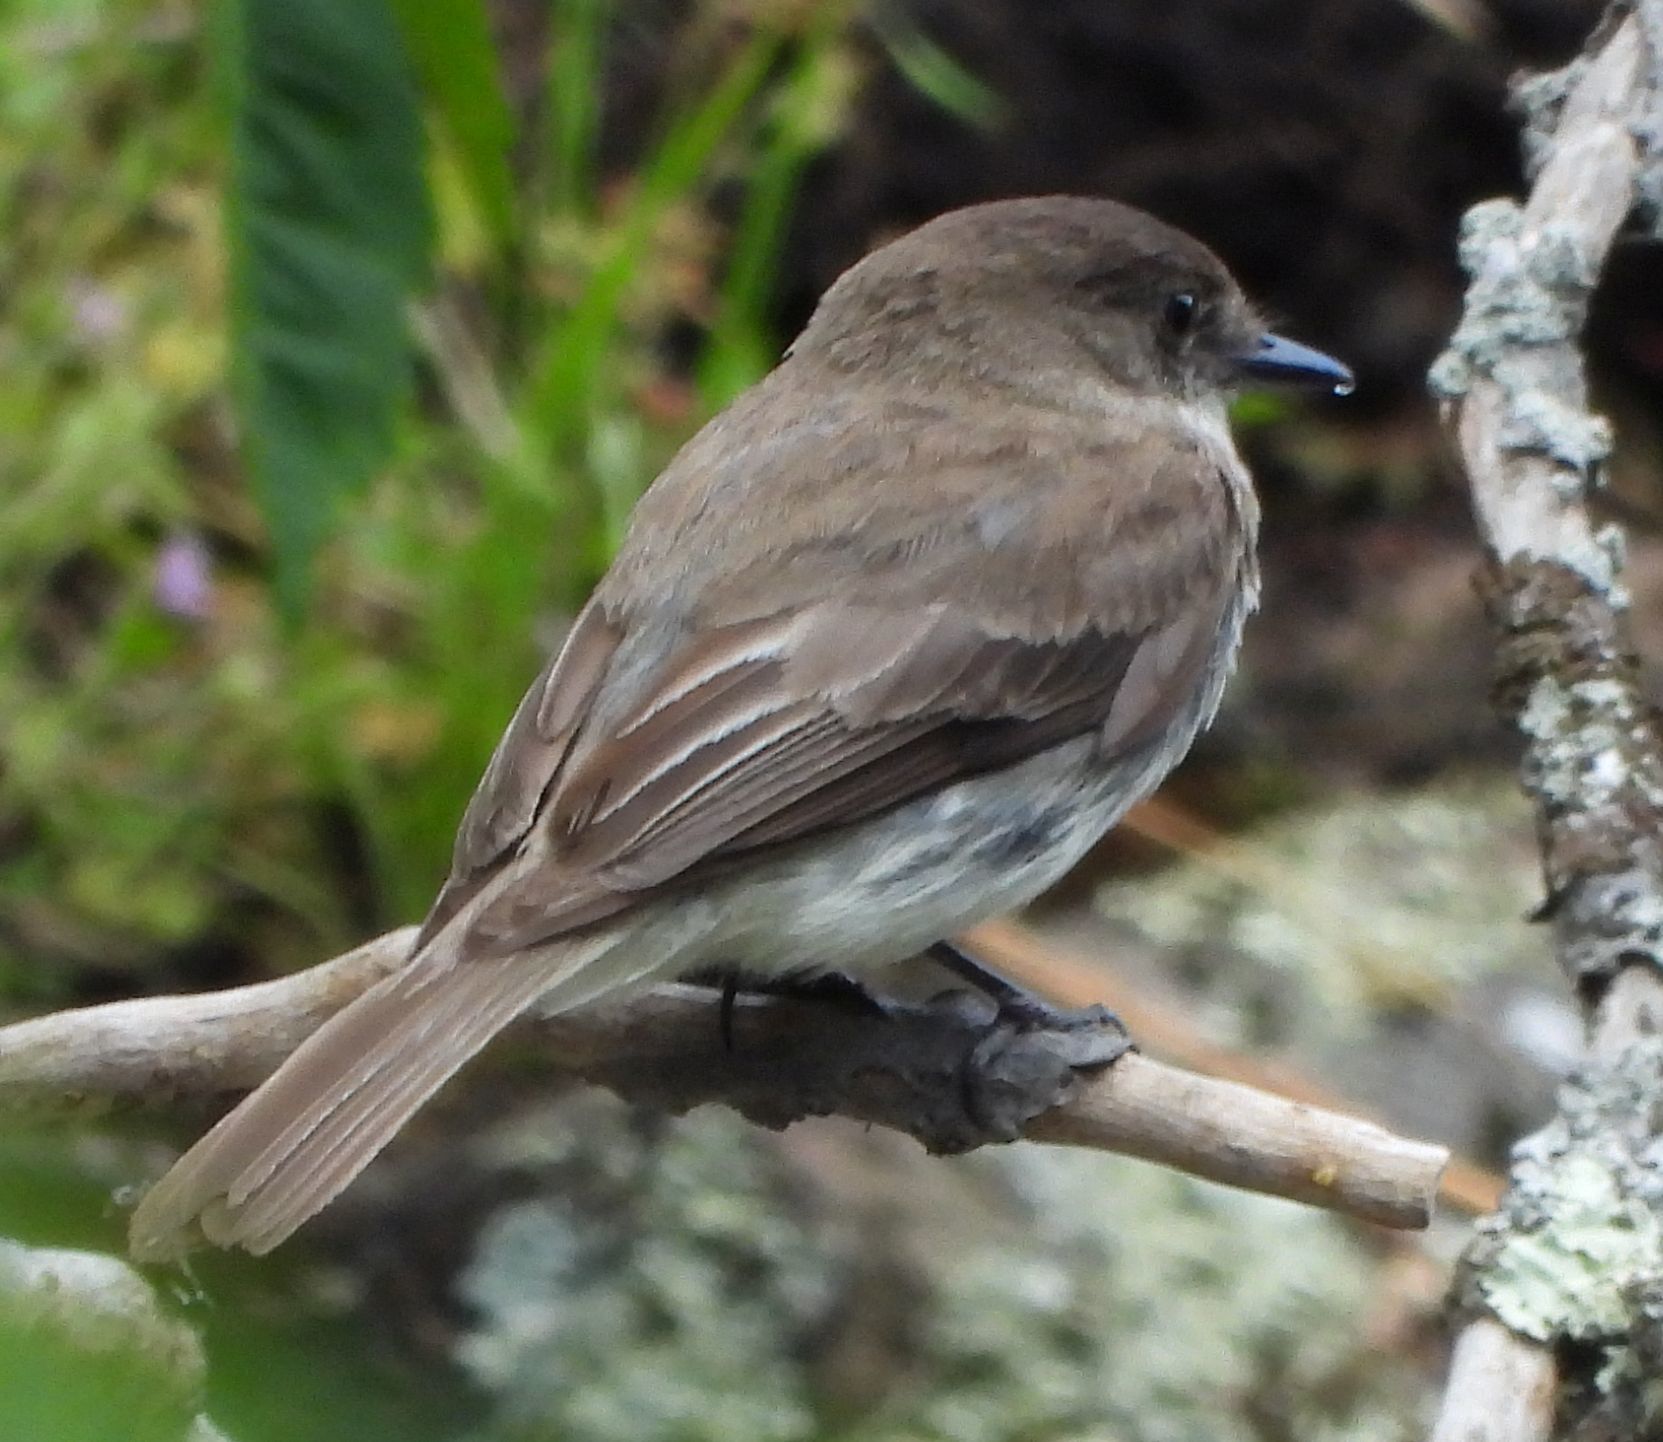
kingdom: Animalia
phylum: Chordata
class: Aves
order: Passeriformes
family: Tyrannidae
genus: Sayornis
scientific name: Sayornis phoebe
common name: Eastern phoebe
